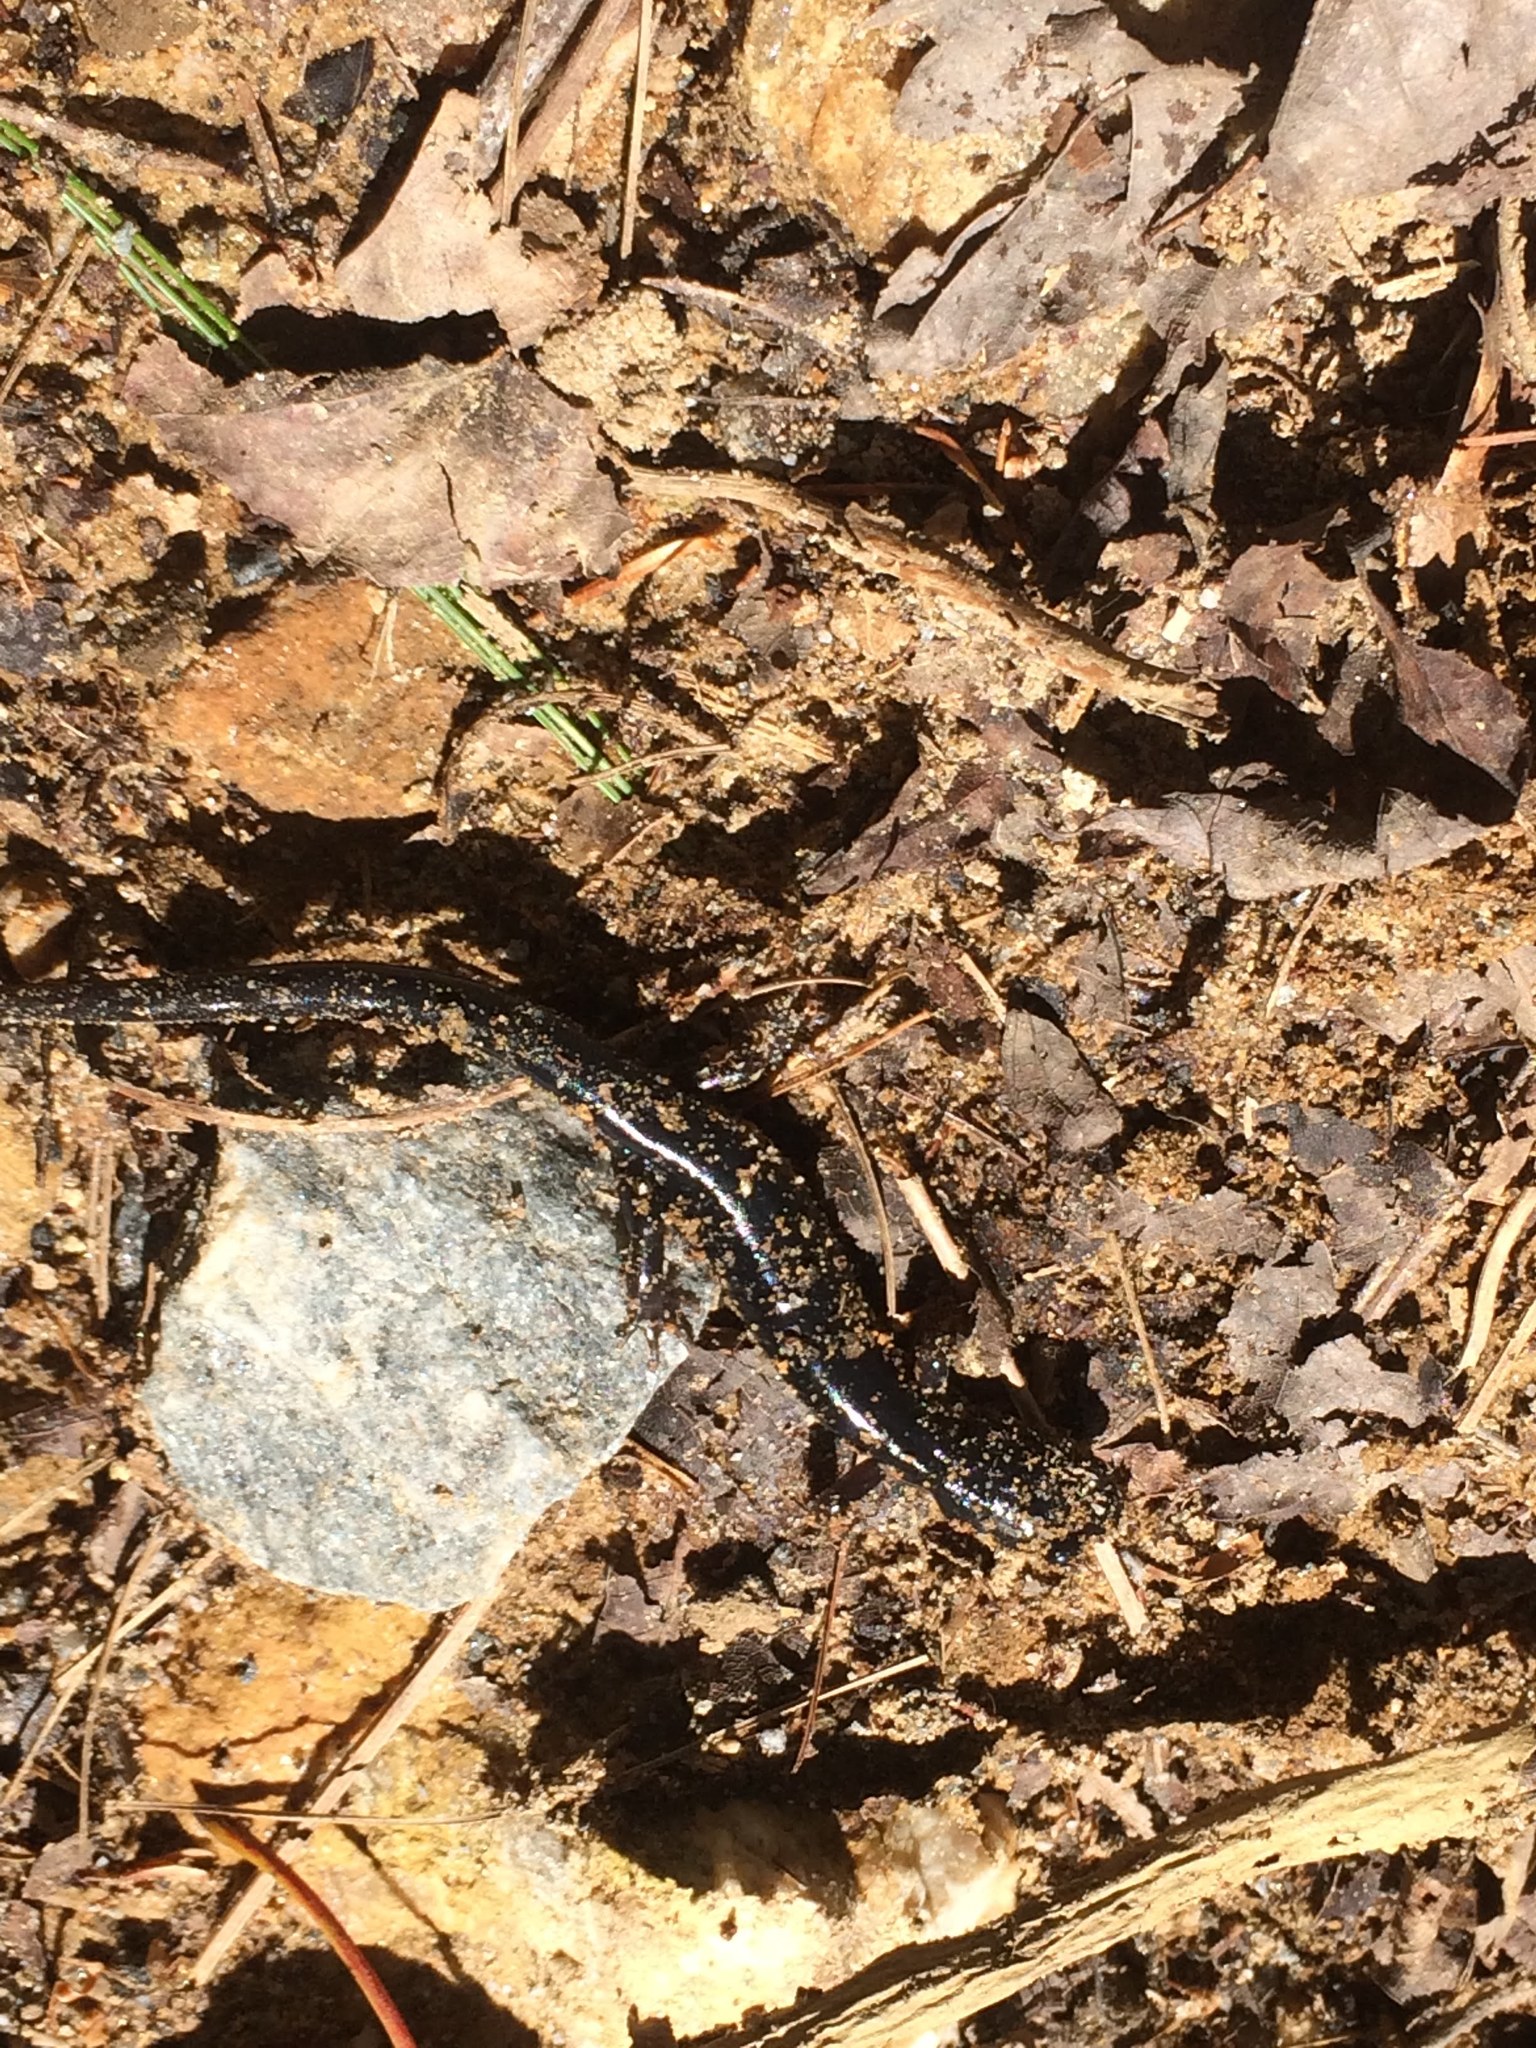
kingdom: Animalia
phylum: Chordata
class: Amphibia
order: Caudata
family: Plethodontidae
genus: Plethodon
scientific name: Plethodon metcalfi
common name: Southern gray-cheeked salamander
